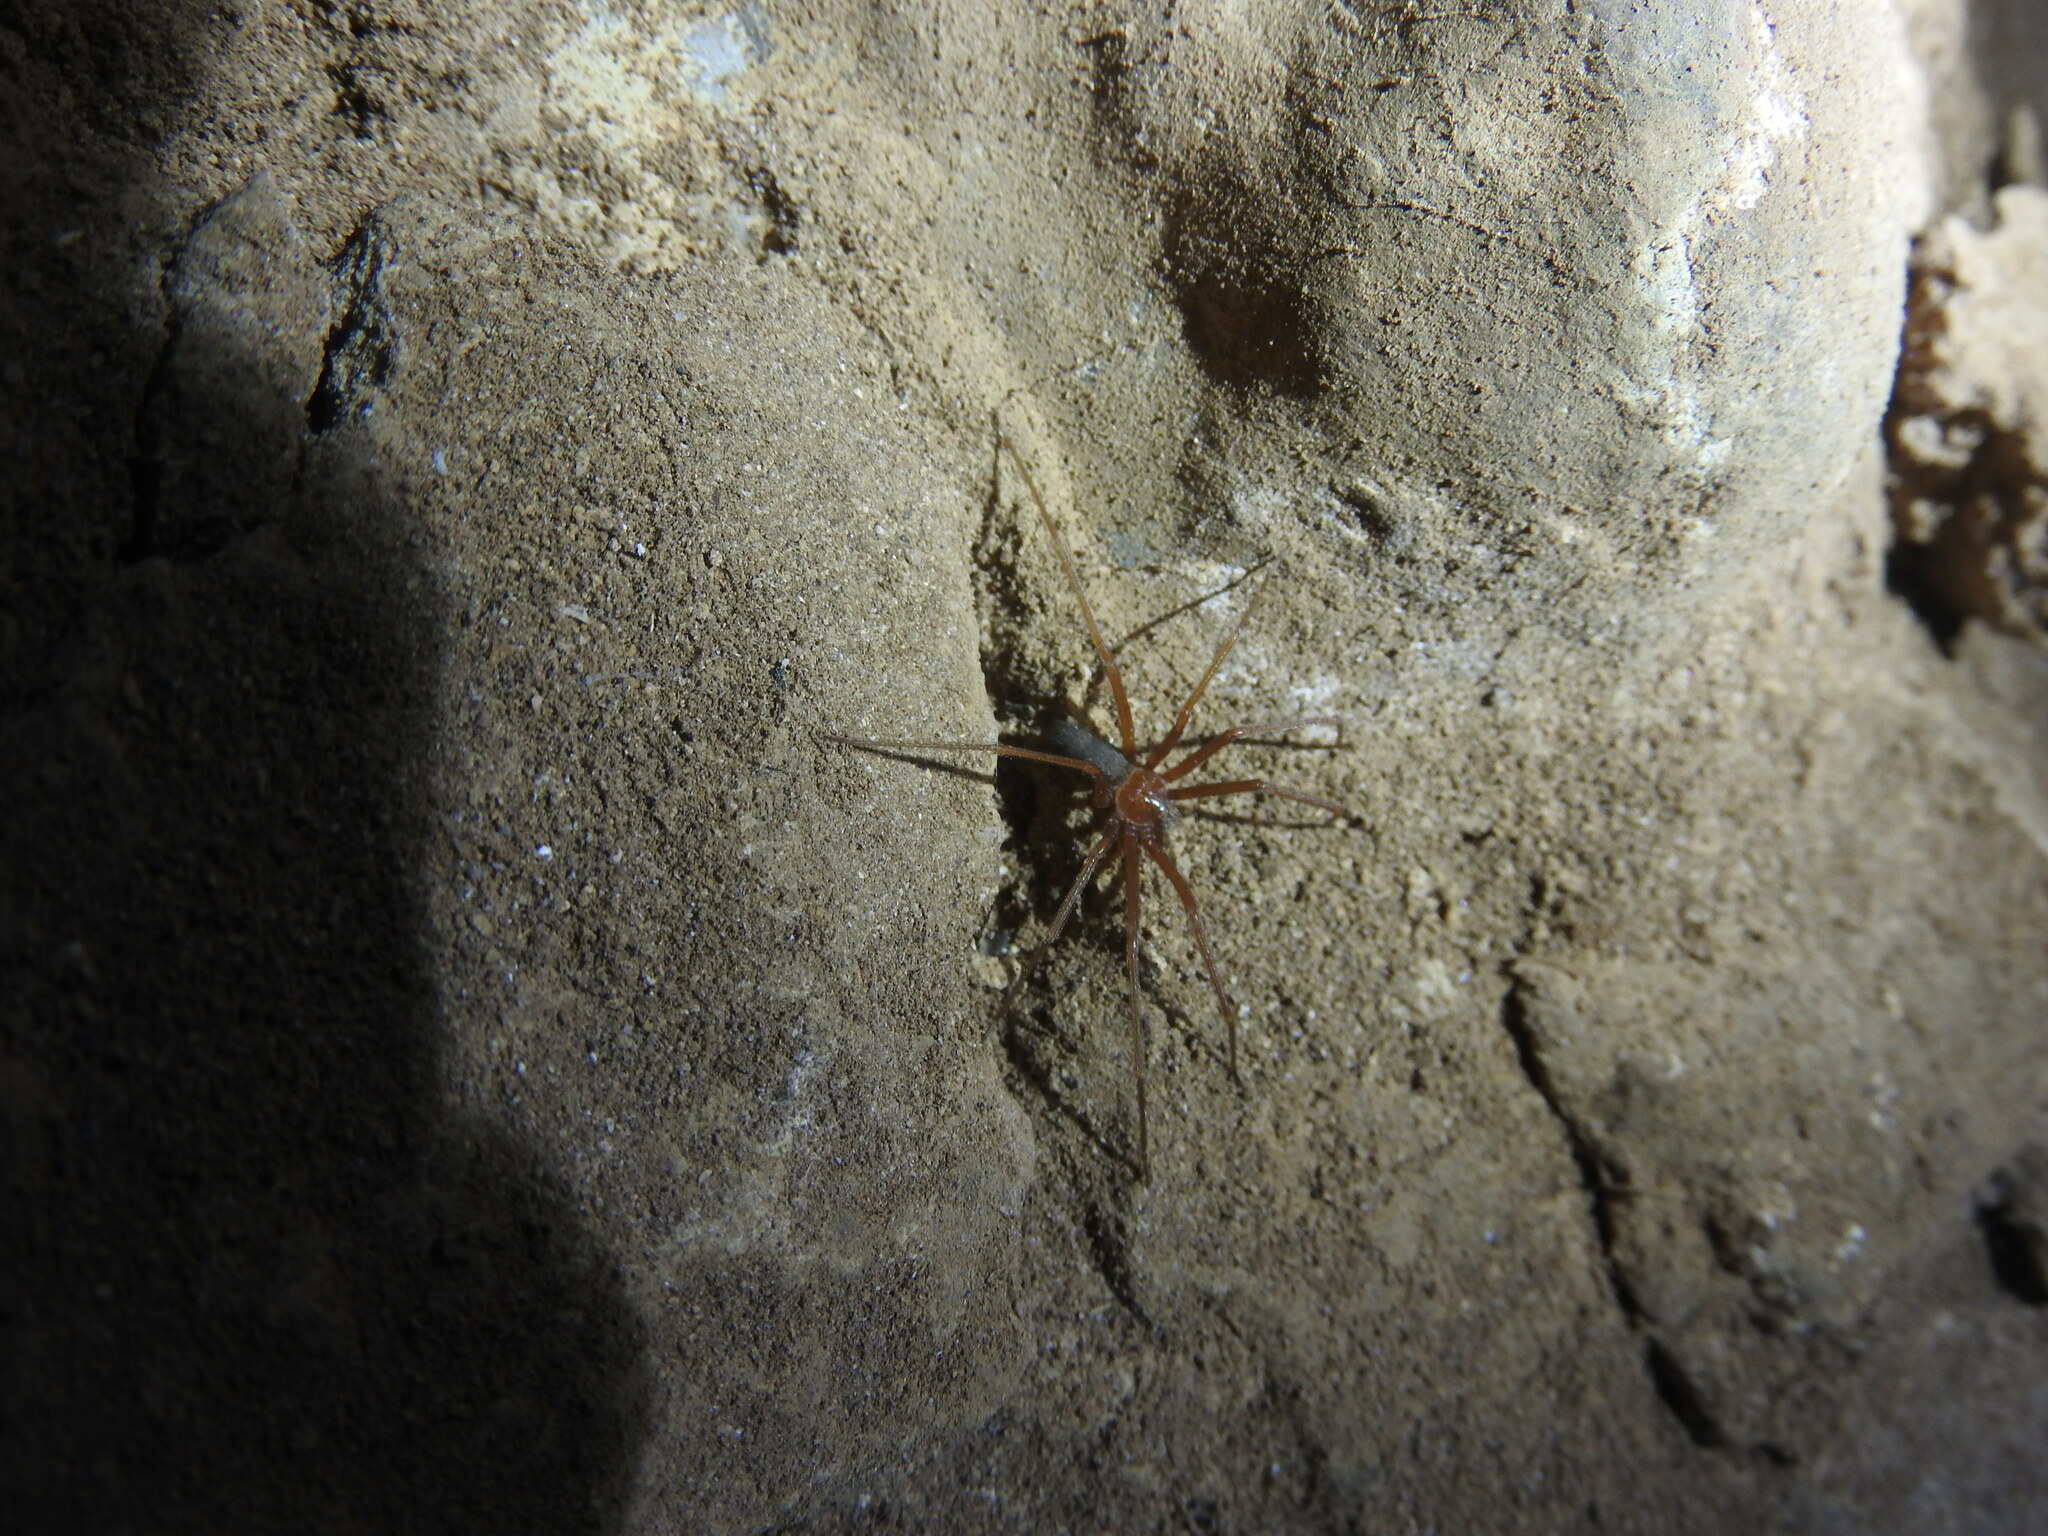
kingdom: Animalia
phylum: Arthropoda
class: Arachnida
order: Araneae
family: Sicariidae
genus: Loxosceles
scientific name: Loxosceles yucatana
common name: Violin spiders
